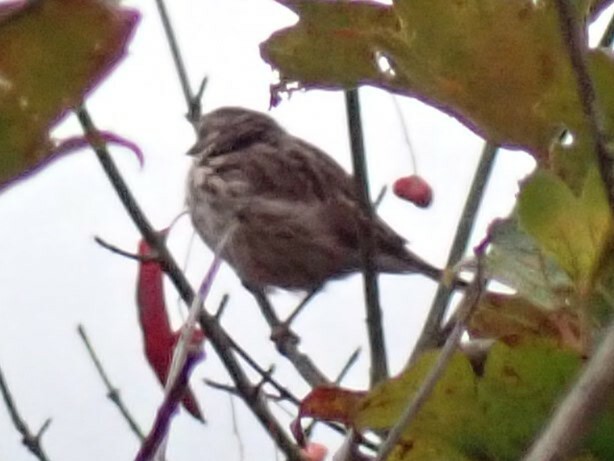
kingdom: Animalia
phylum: Chordata
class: Aves
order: Passeriformes
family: Passerellidae
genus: Melospiza
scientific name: Melospiza melodia
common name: Song sparrow
